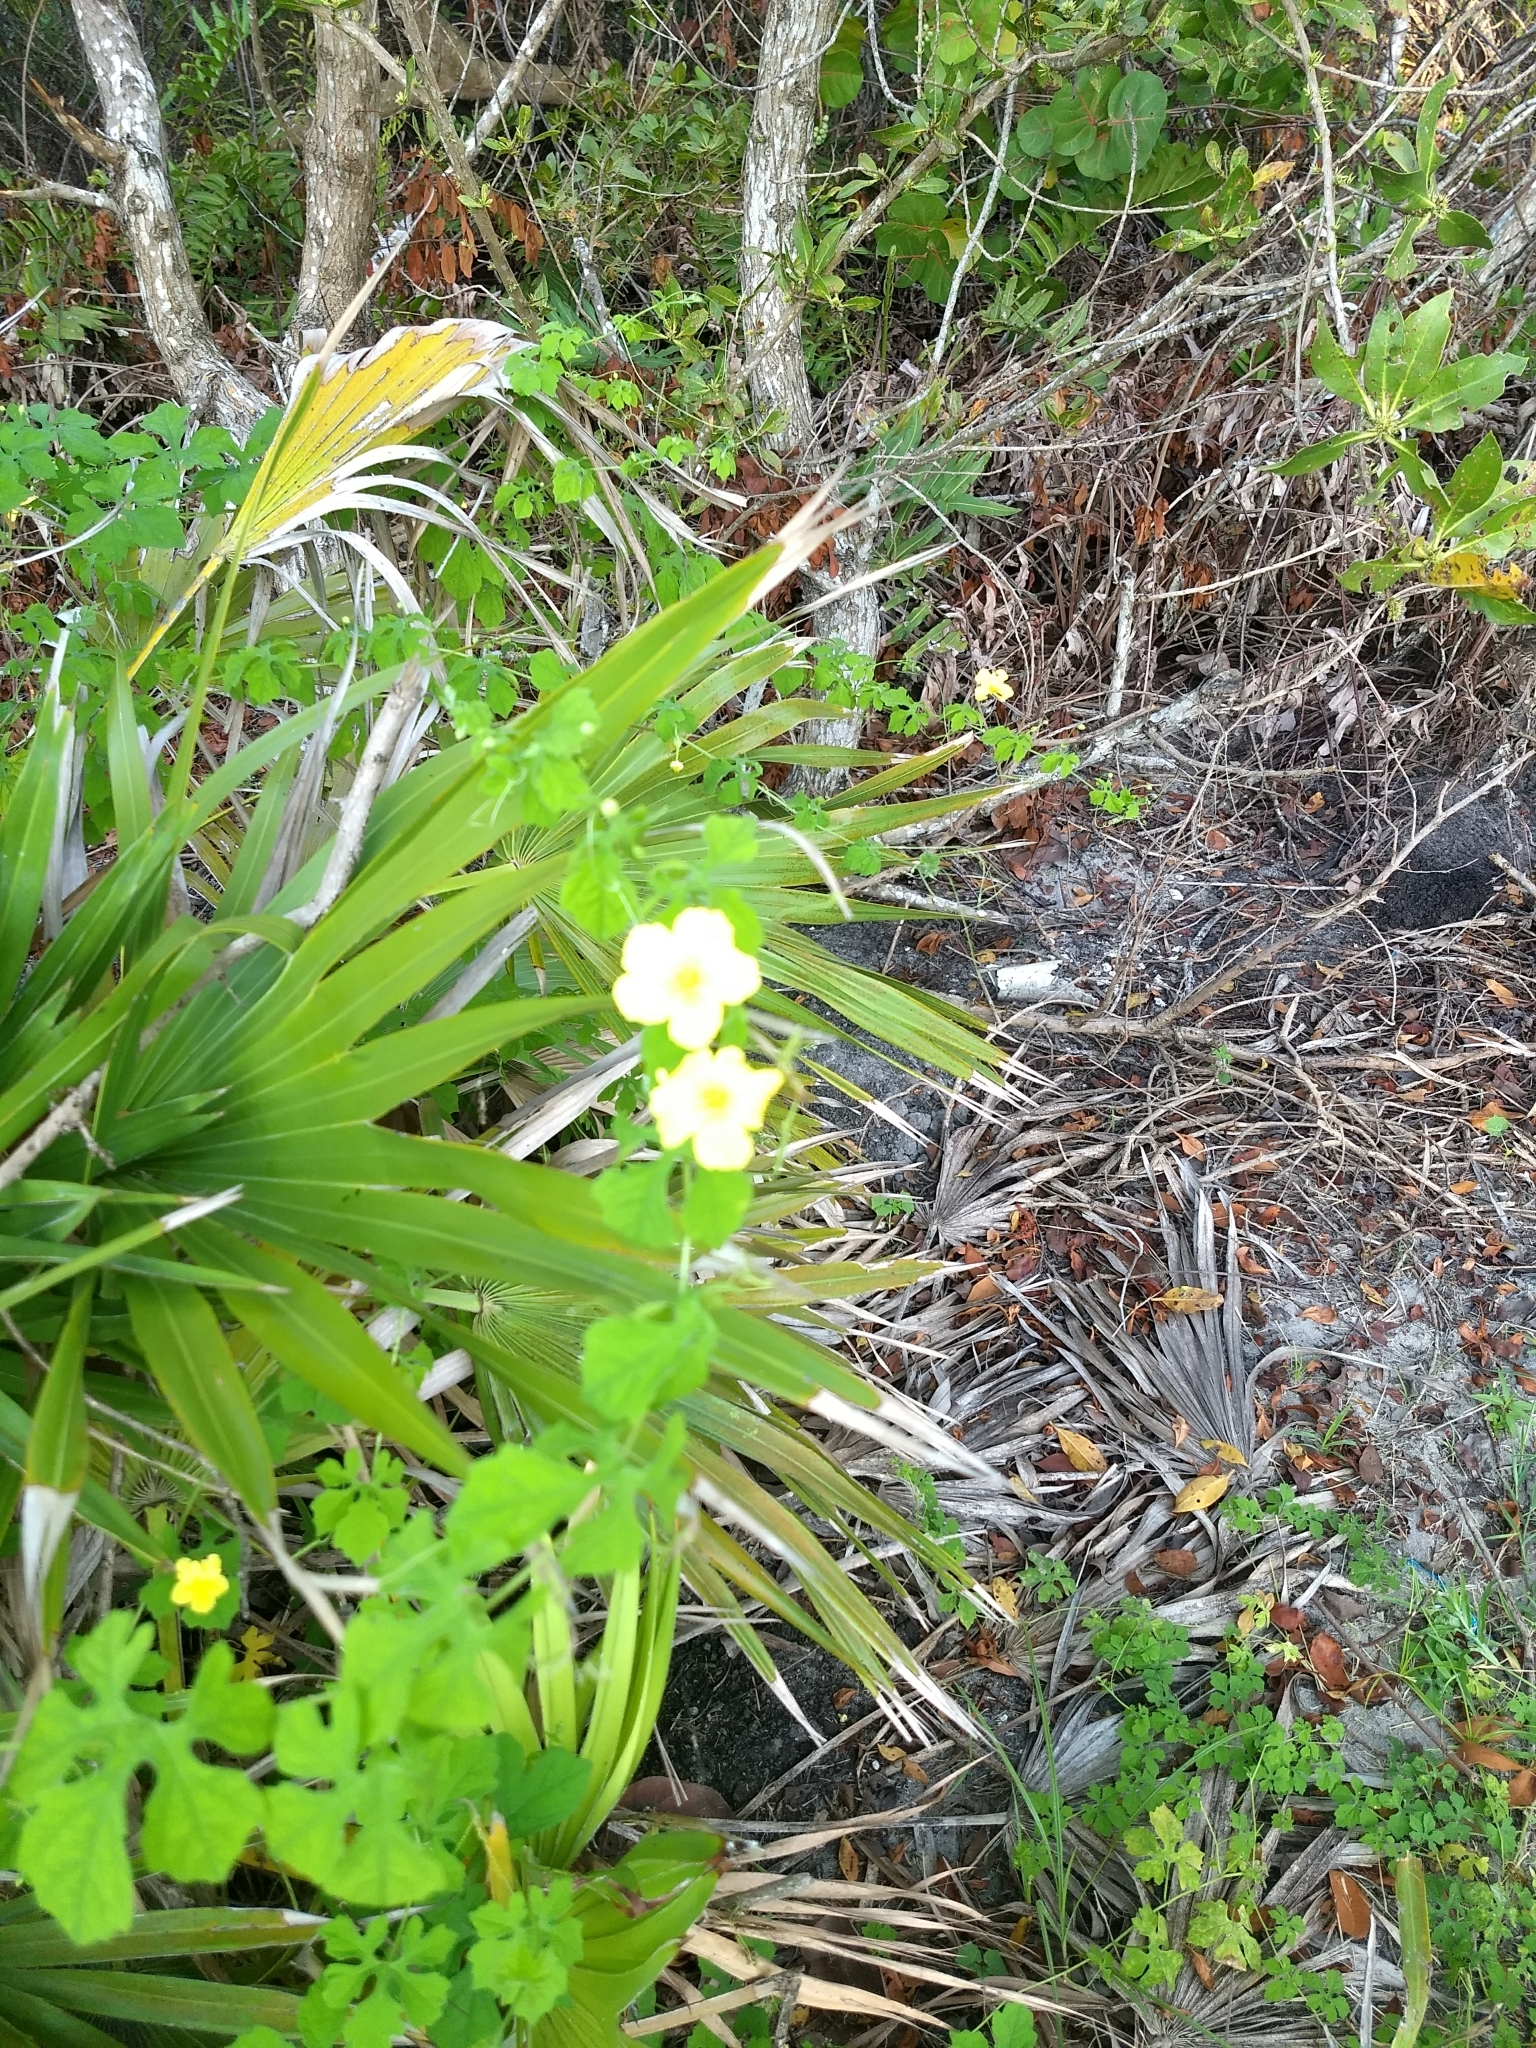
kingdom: Plantae
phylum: Tracheophyta
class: Magnoliopsida
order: Cucurbitales
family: Cucurbitaceae
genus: Momordica
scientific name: Momordica charantia
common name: Balsampear
